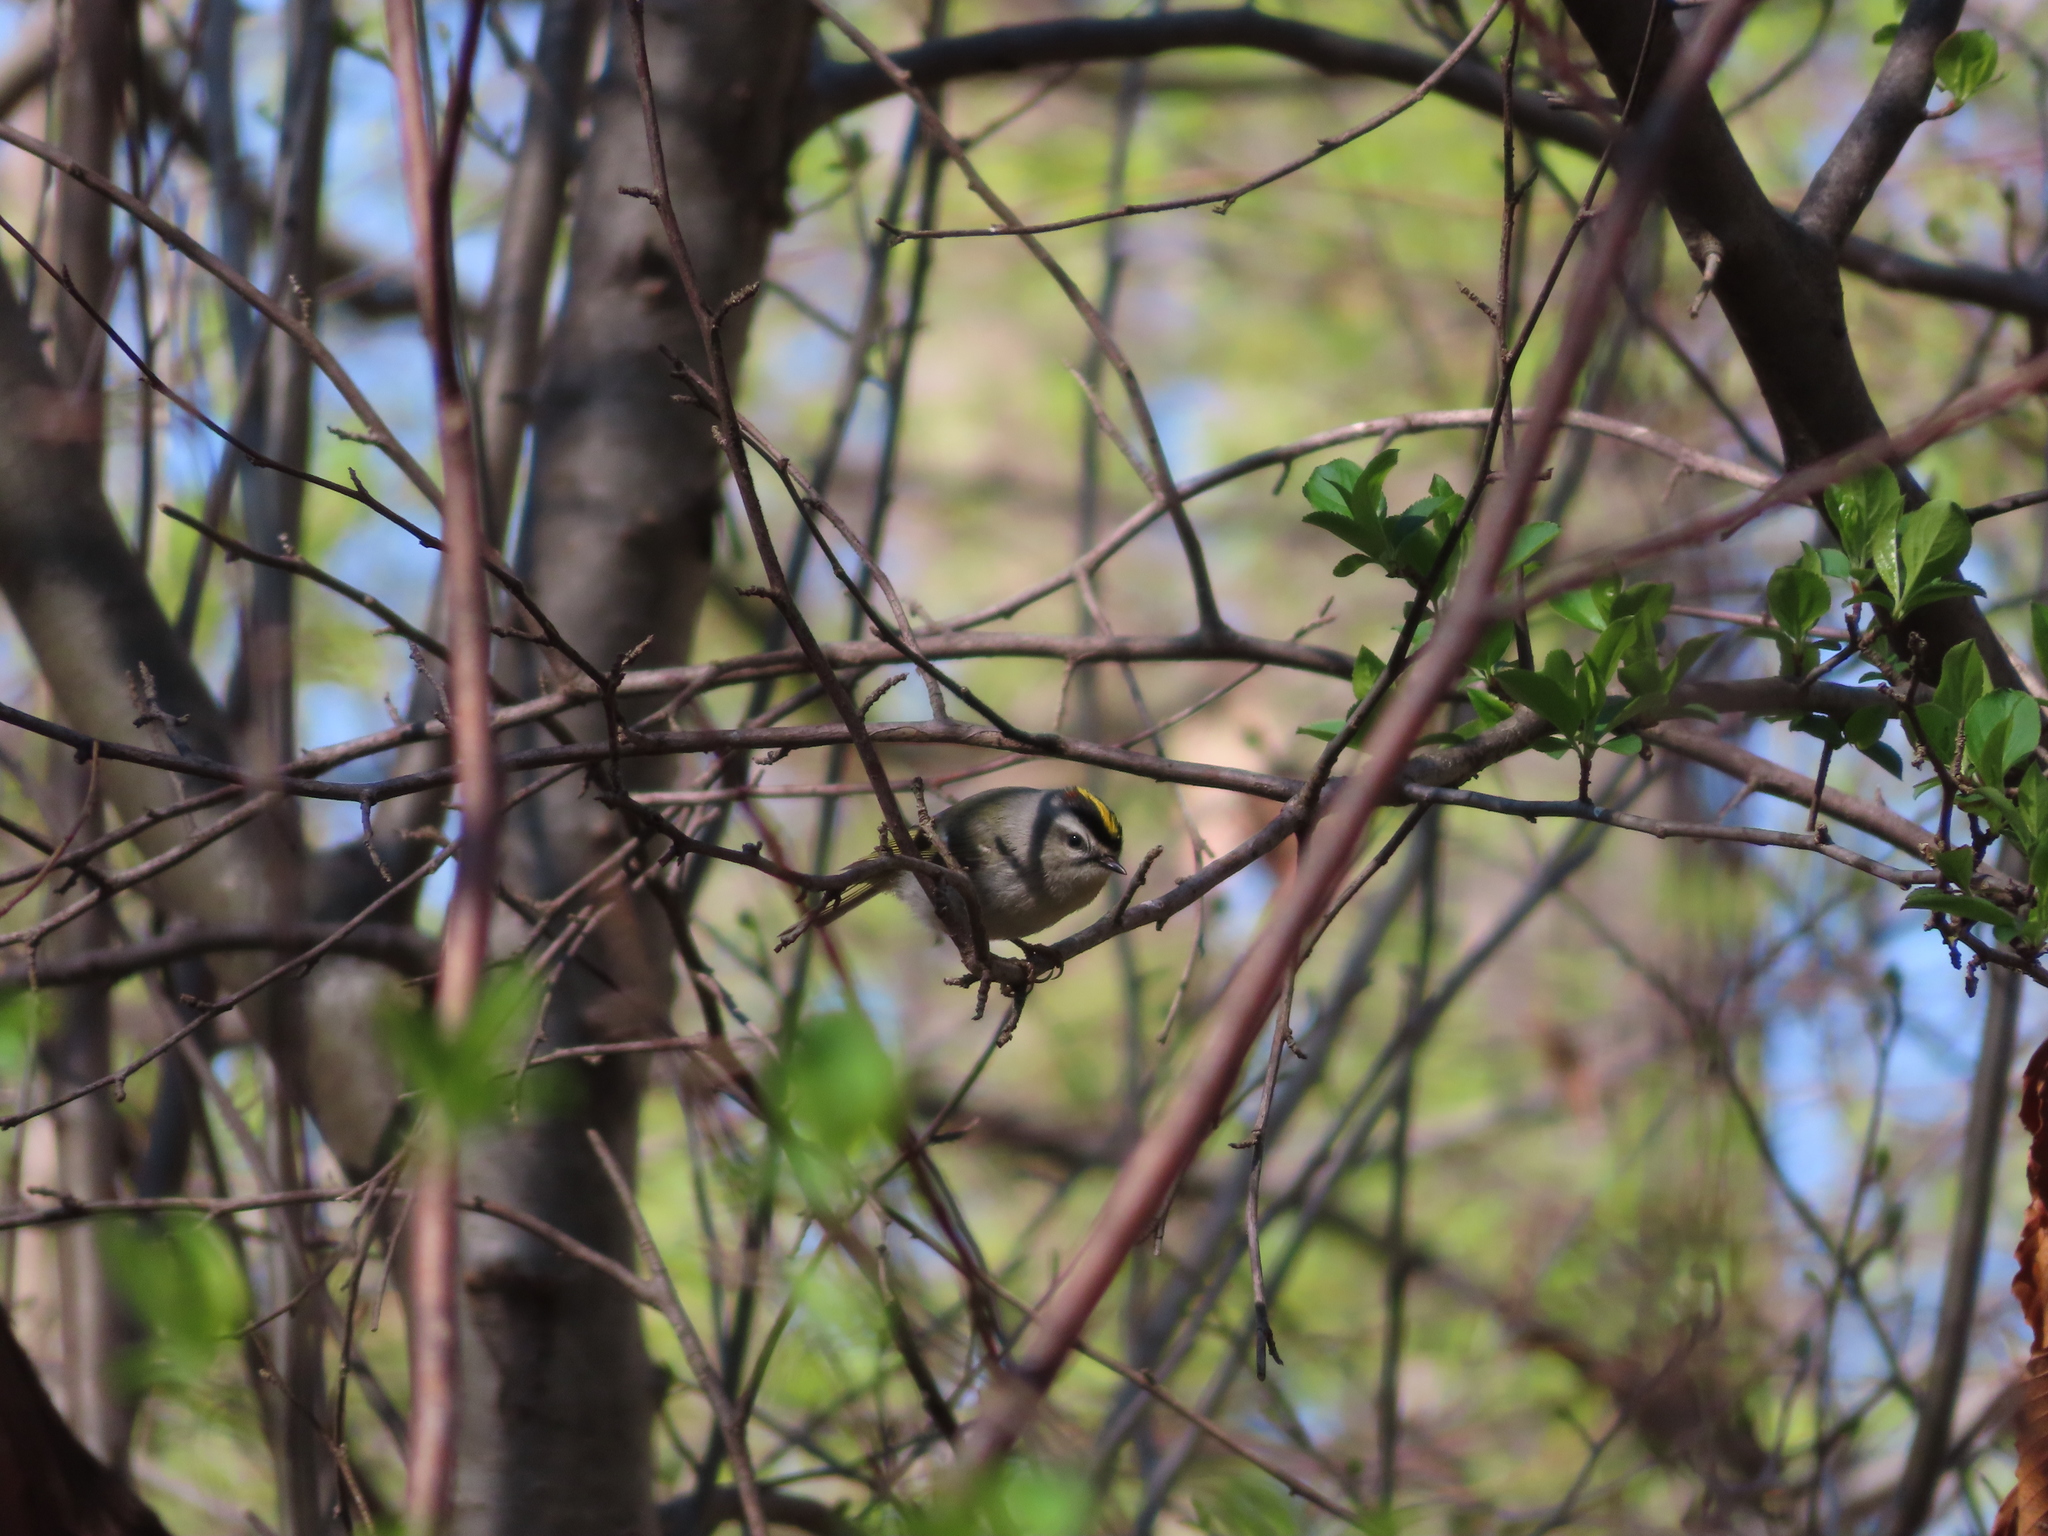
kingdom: Animalia
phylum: Chordata
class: Aves
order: Passeriformes
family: Regulidae
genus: Regulus
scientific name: Regulus satrapa
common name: Golden-crowned kinglet
